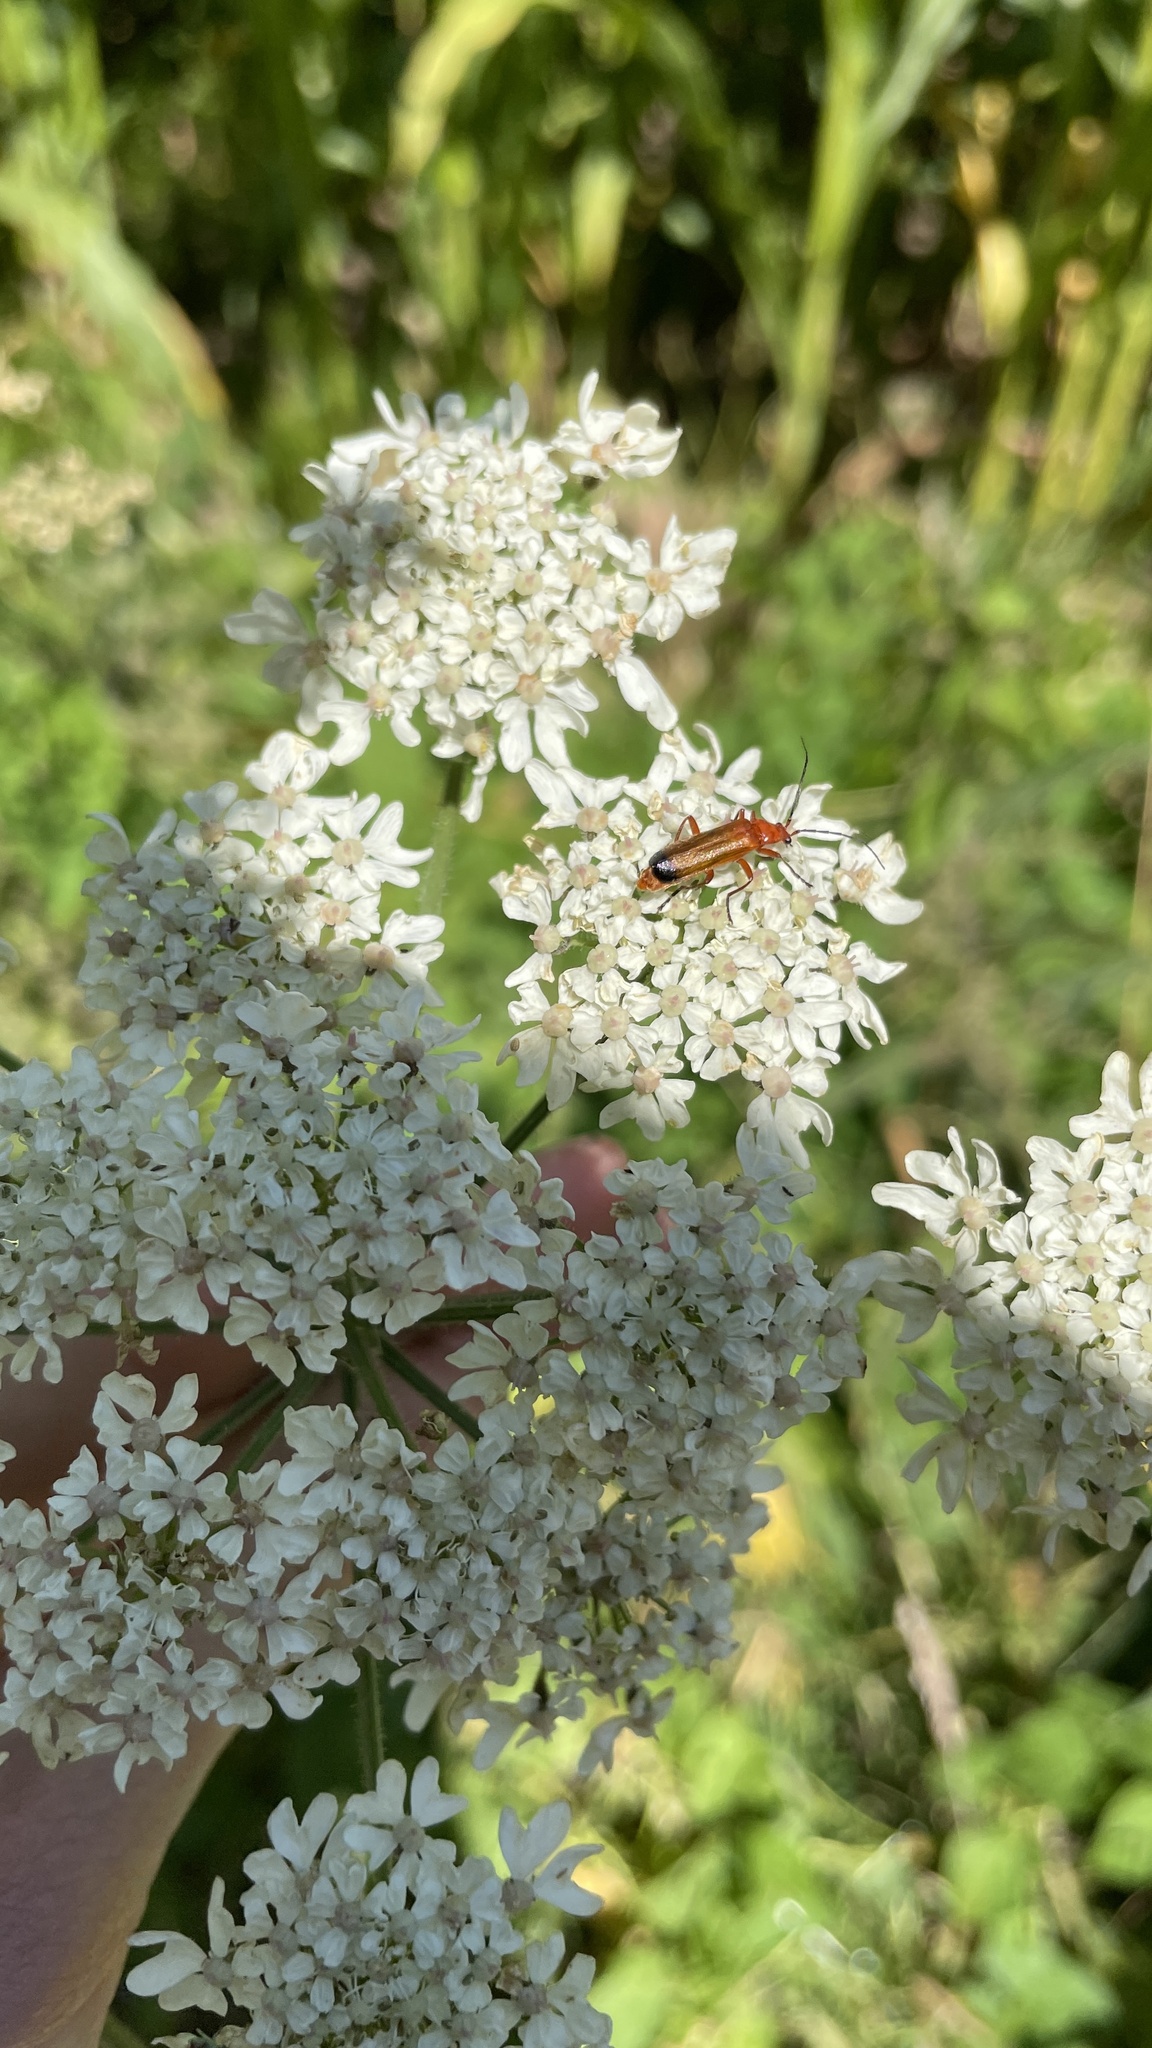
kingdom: Animalia
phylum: Arthropoda
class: Insecta
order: Coleoptera
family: Cantharidae
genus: Rhagonycha
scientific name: Rhagonycha fulva
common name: Common red soldier beetle
